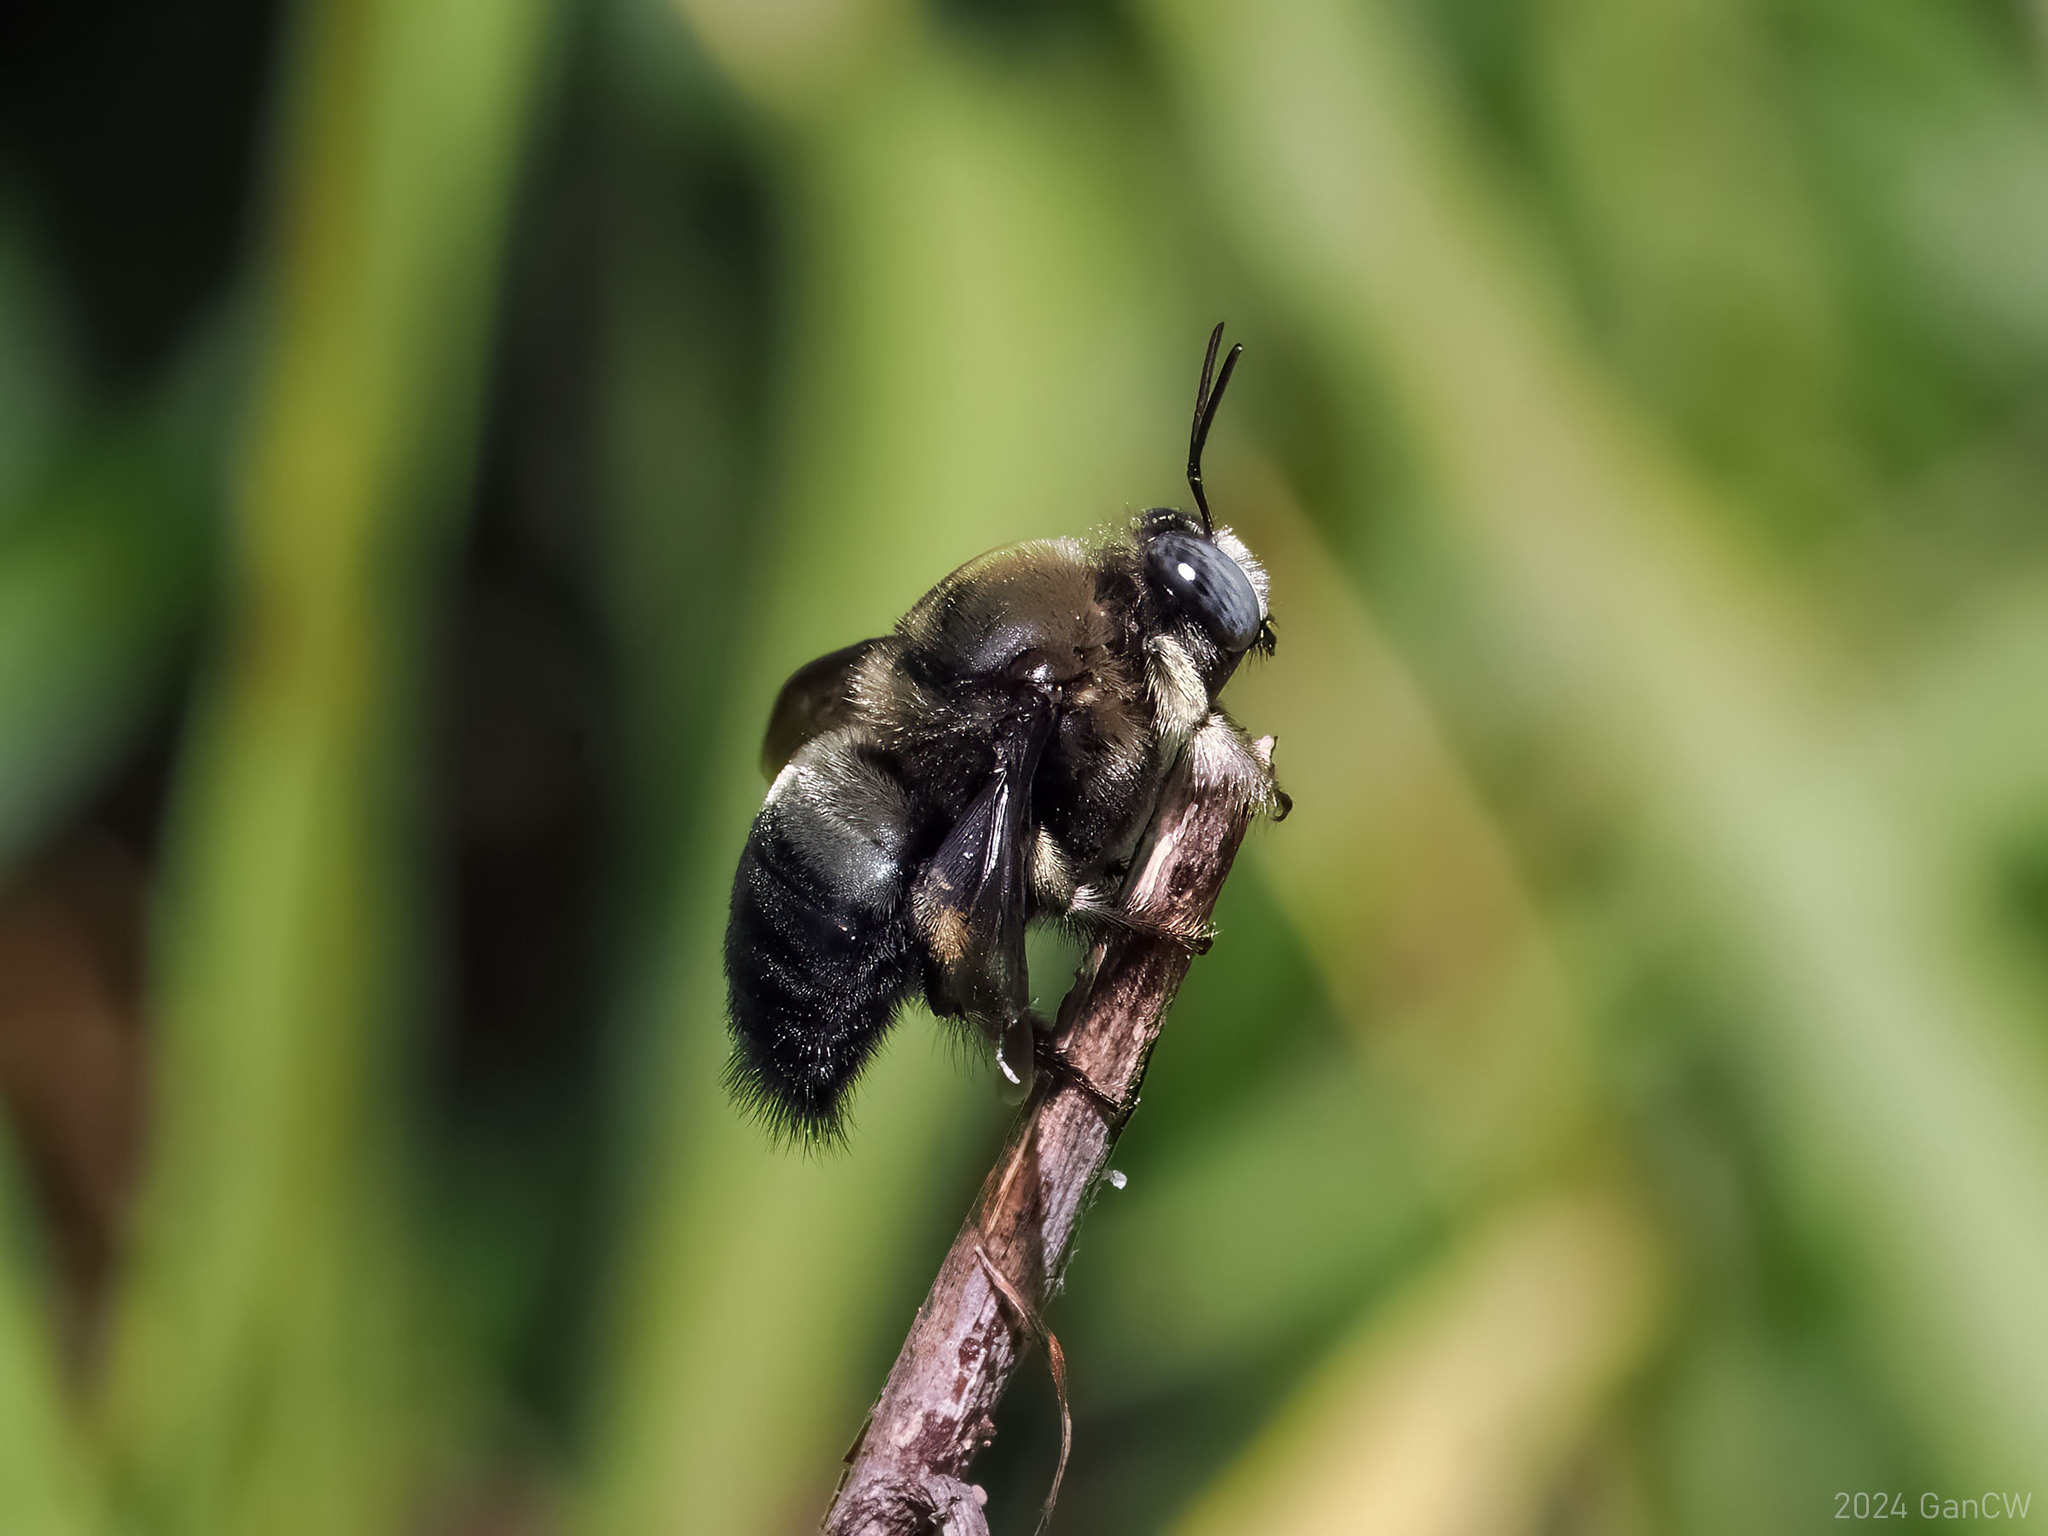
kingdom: Animalia
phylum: Arthropoda
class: Insecta
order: Hymenoptera
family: Apidae
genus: Xylocopa
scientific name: Xylocopa fuliginata
